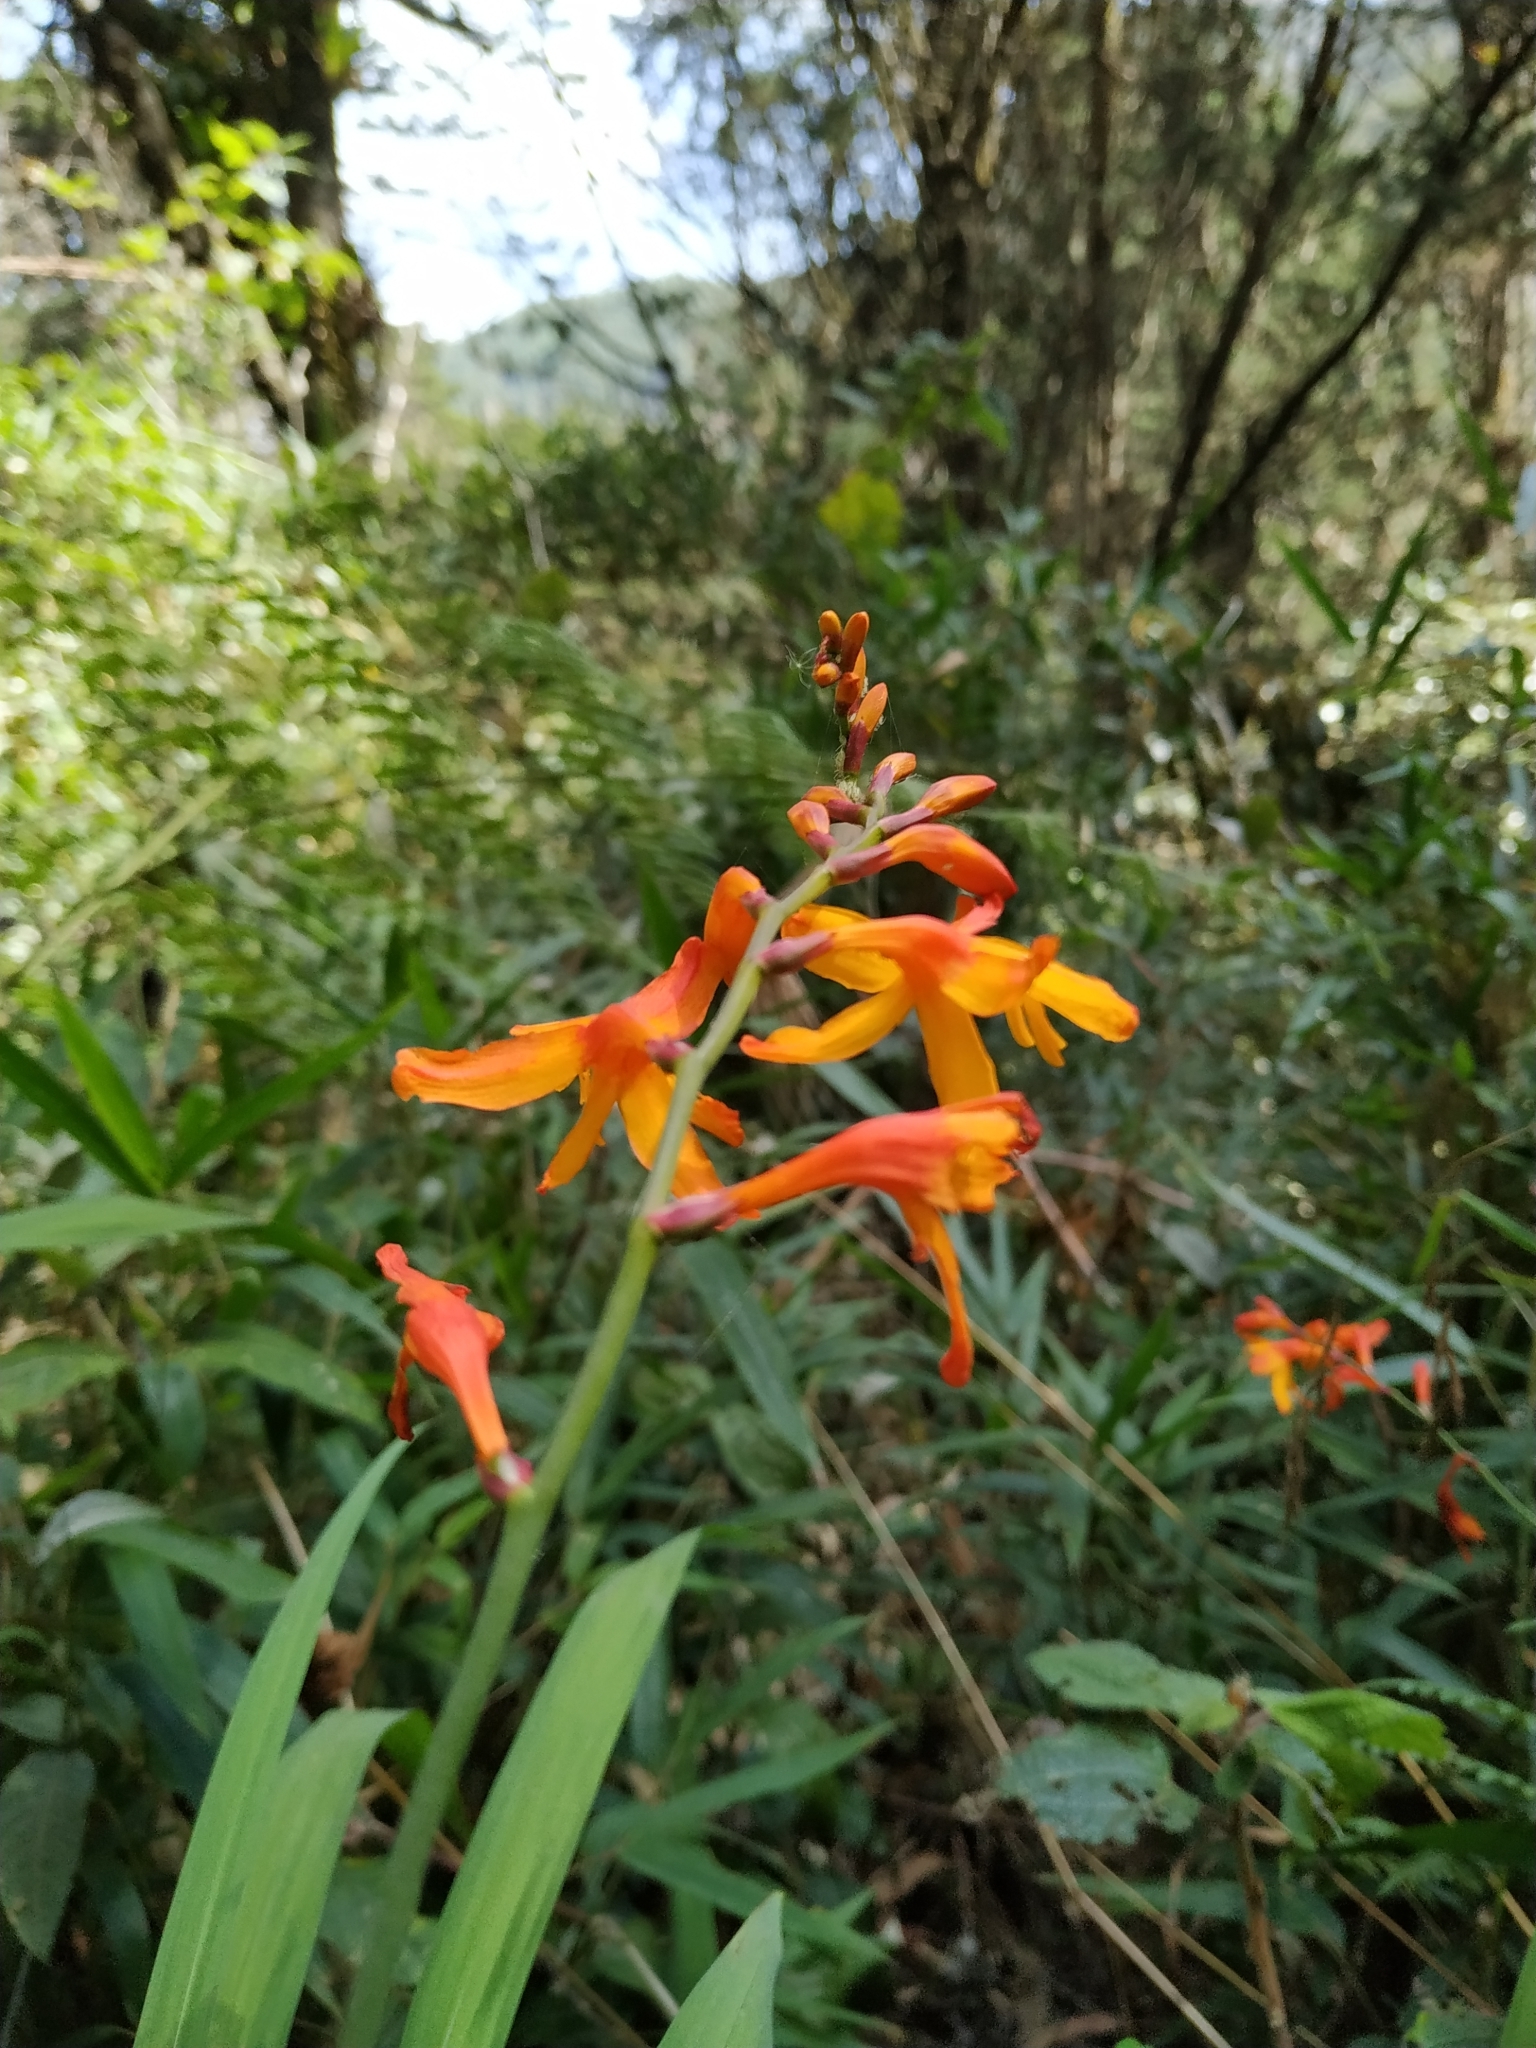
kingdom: Plantae
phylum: Tracheophyta
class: Liliopsida
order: Asparagales
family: Iridaceae
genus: Crocosmia
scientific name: Crocosmia crocosmiiflora
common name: Montbretia
